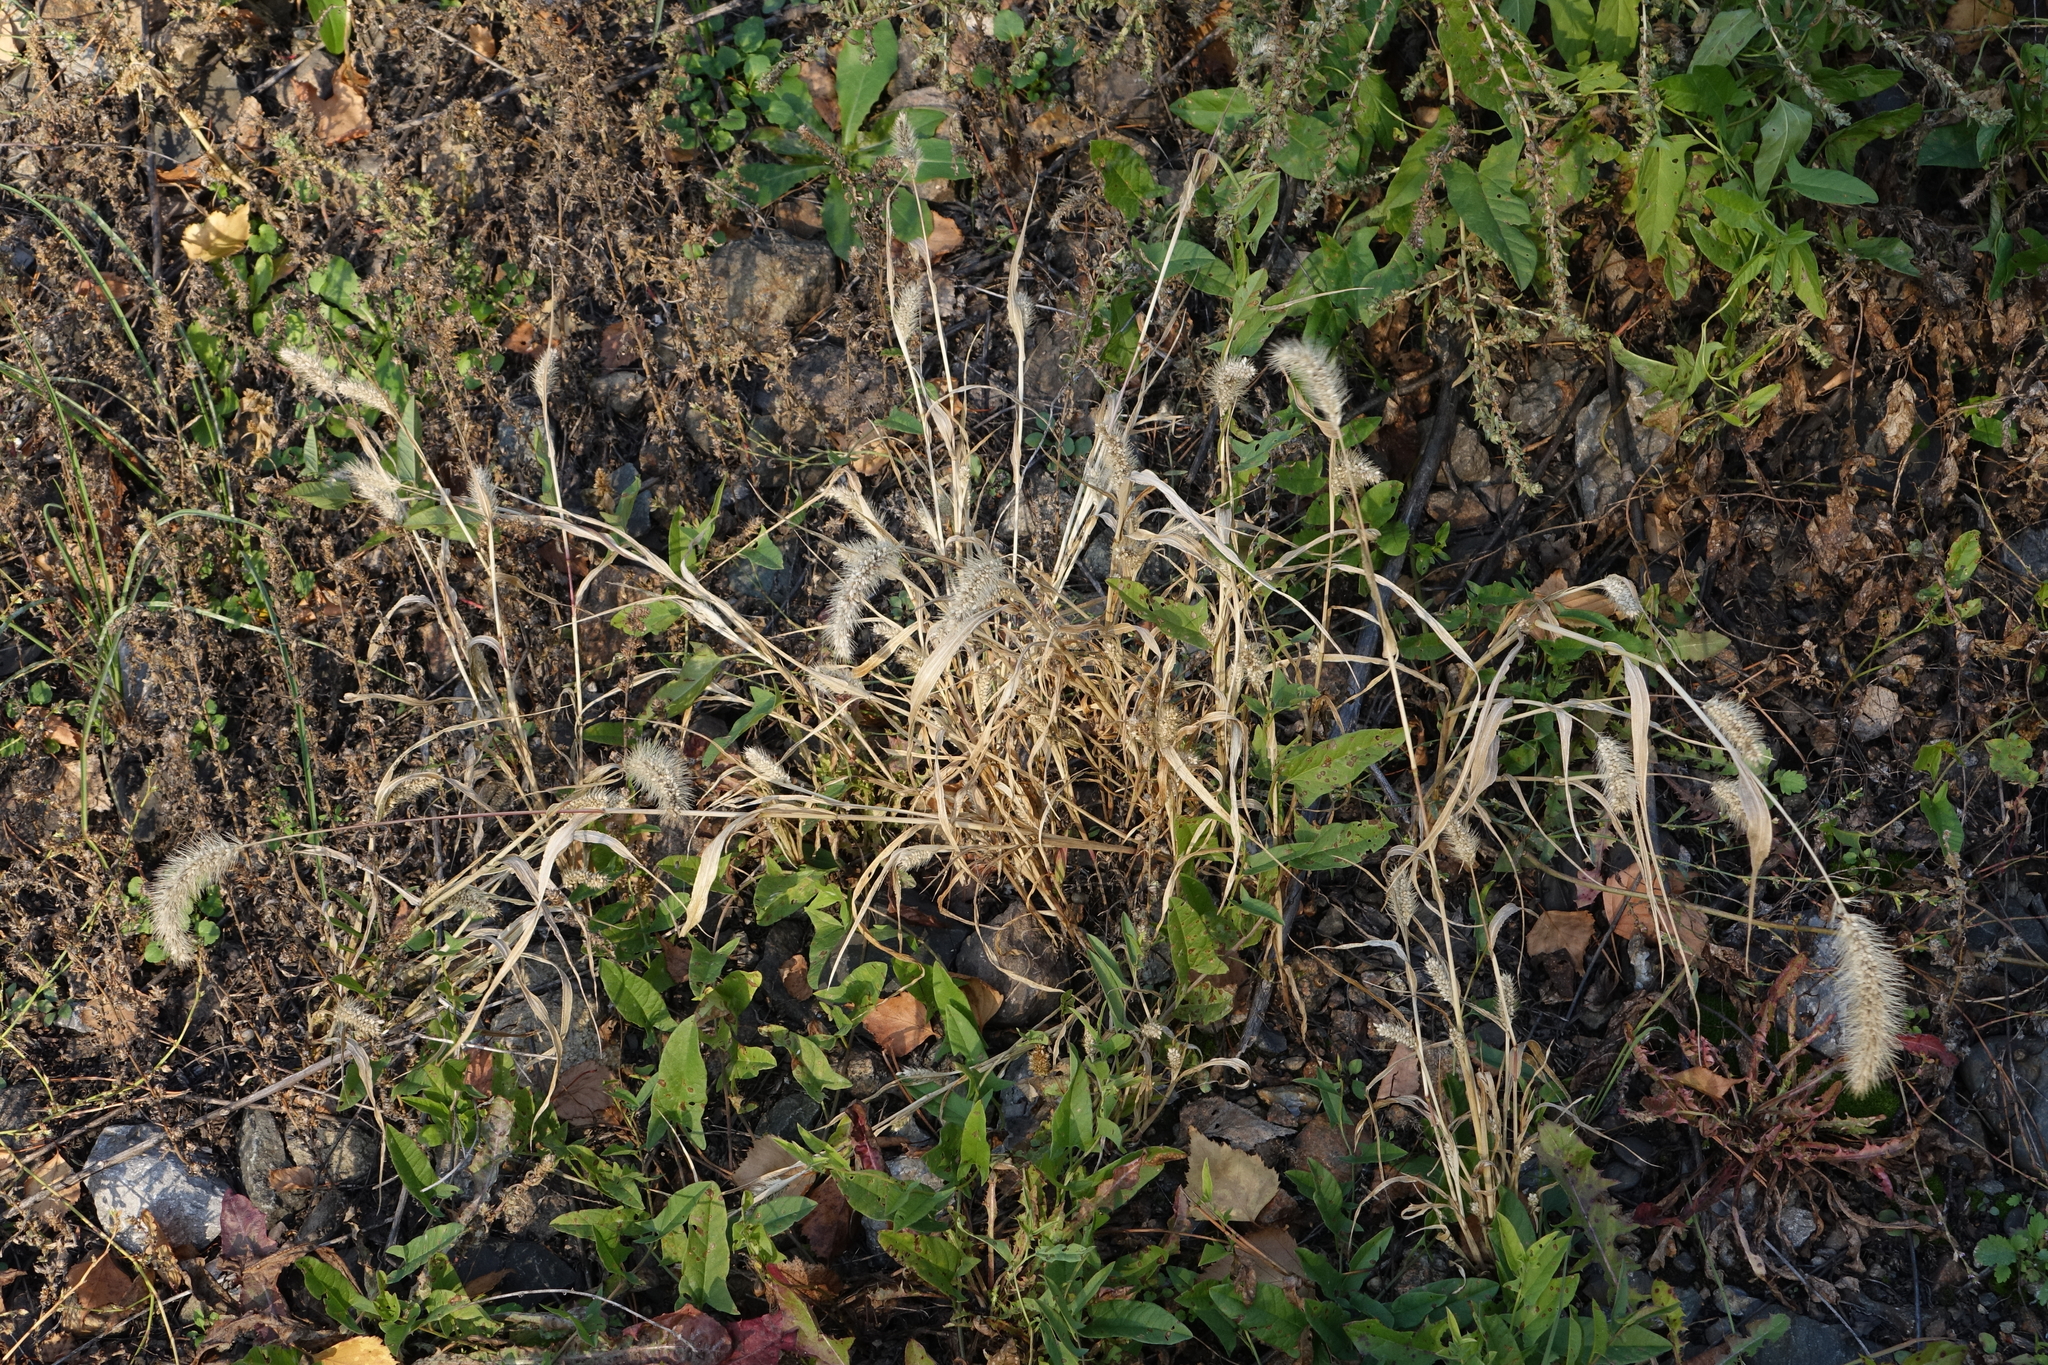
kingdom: Plantae
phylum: Tracheophyta
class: Liliopsida
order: Poales
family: Poaceae
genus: Setaria
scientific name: Setaria viridis
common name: Green bristlegrass
